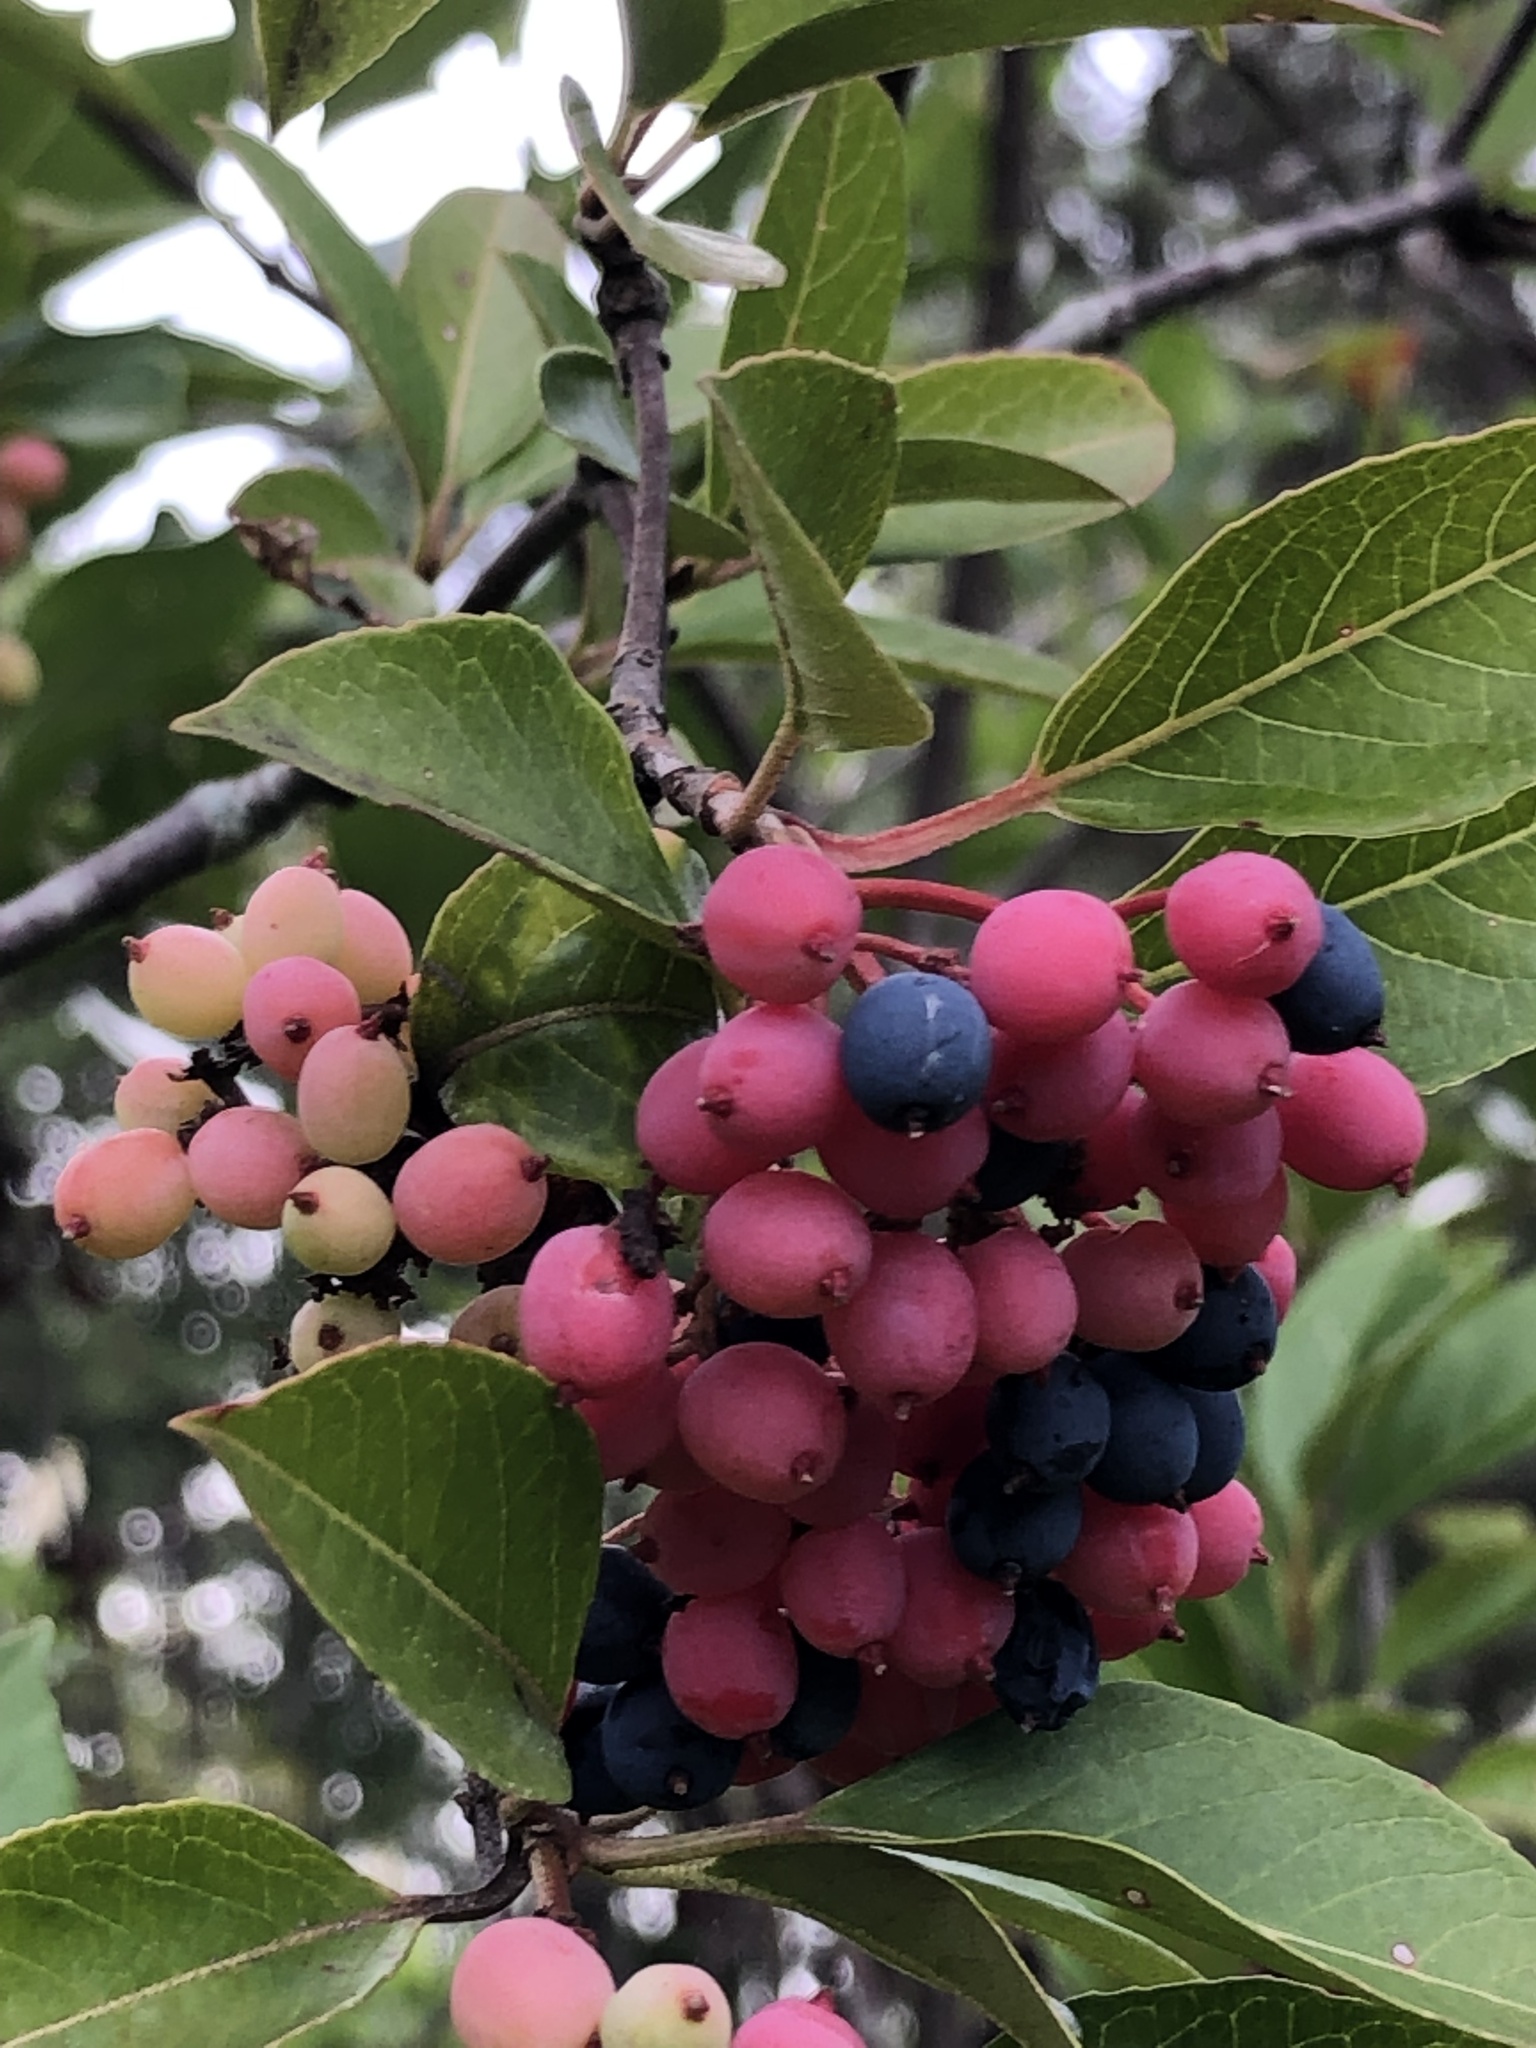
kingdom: Plantae
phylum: Tracheophyta
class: Magnoliopsida
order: Dipsacales
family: Viburnaceae
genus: Viburnum
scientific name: Viburnum cassinoides
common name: Swamp haw
